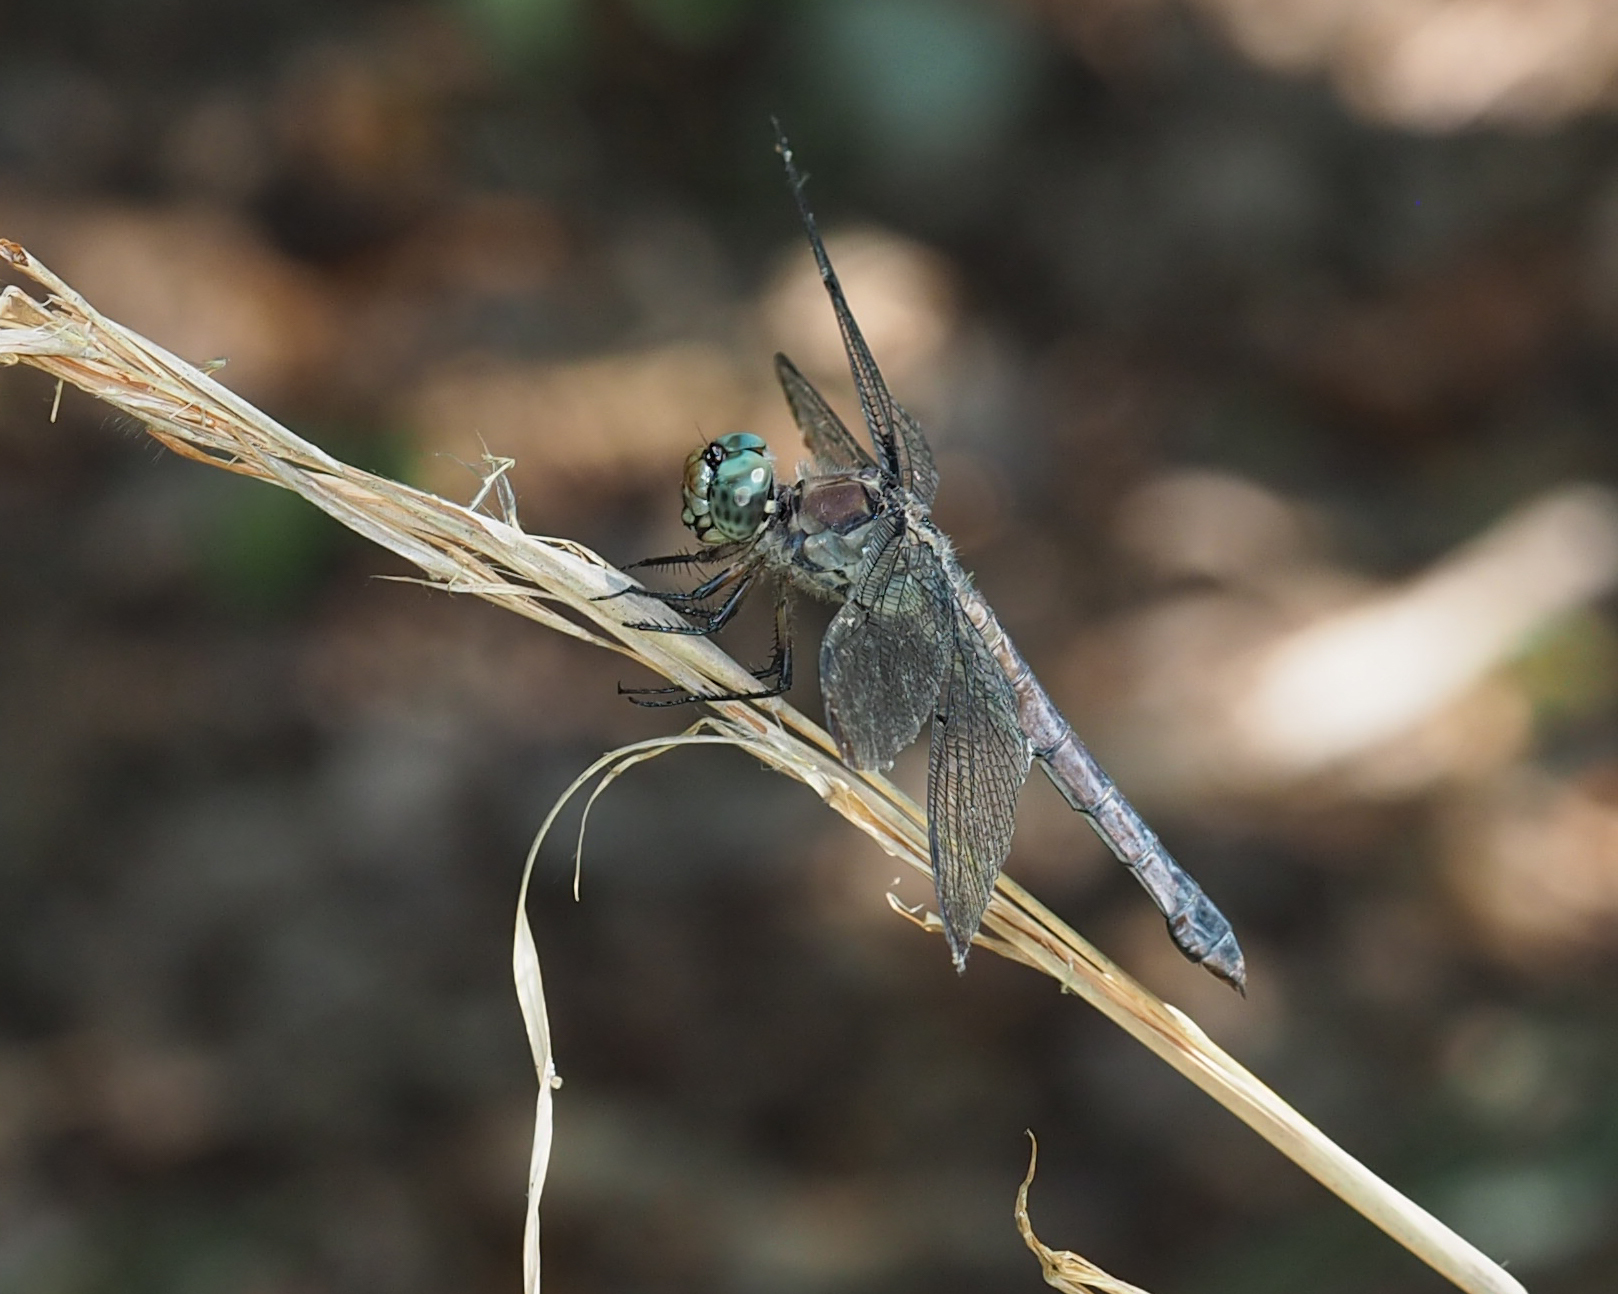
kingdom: Animalia
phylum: Arthropoda
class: Insecta
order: Odonata
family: Libellulidae
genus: Libellula
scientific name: Libellula vibrans
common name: Great blue skimmer
